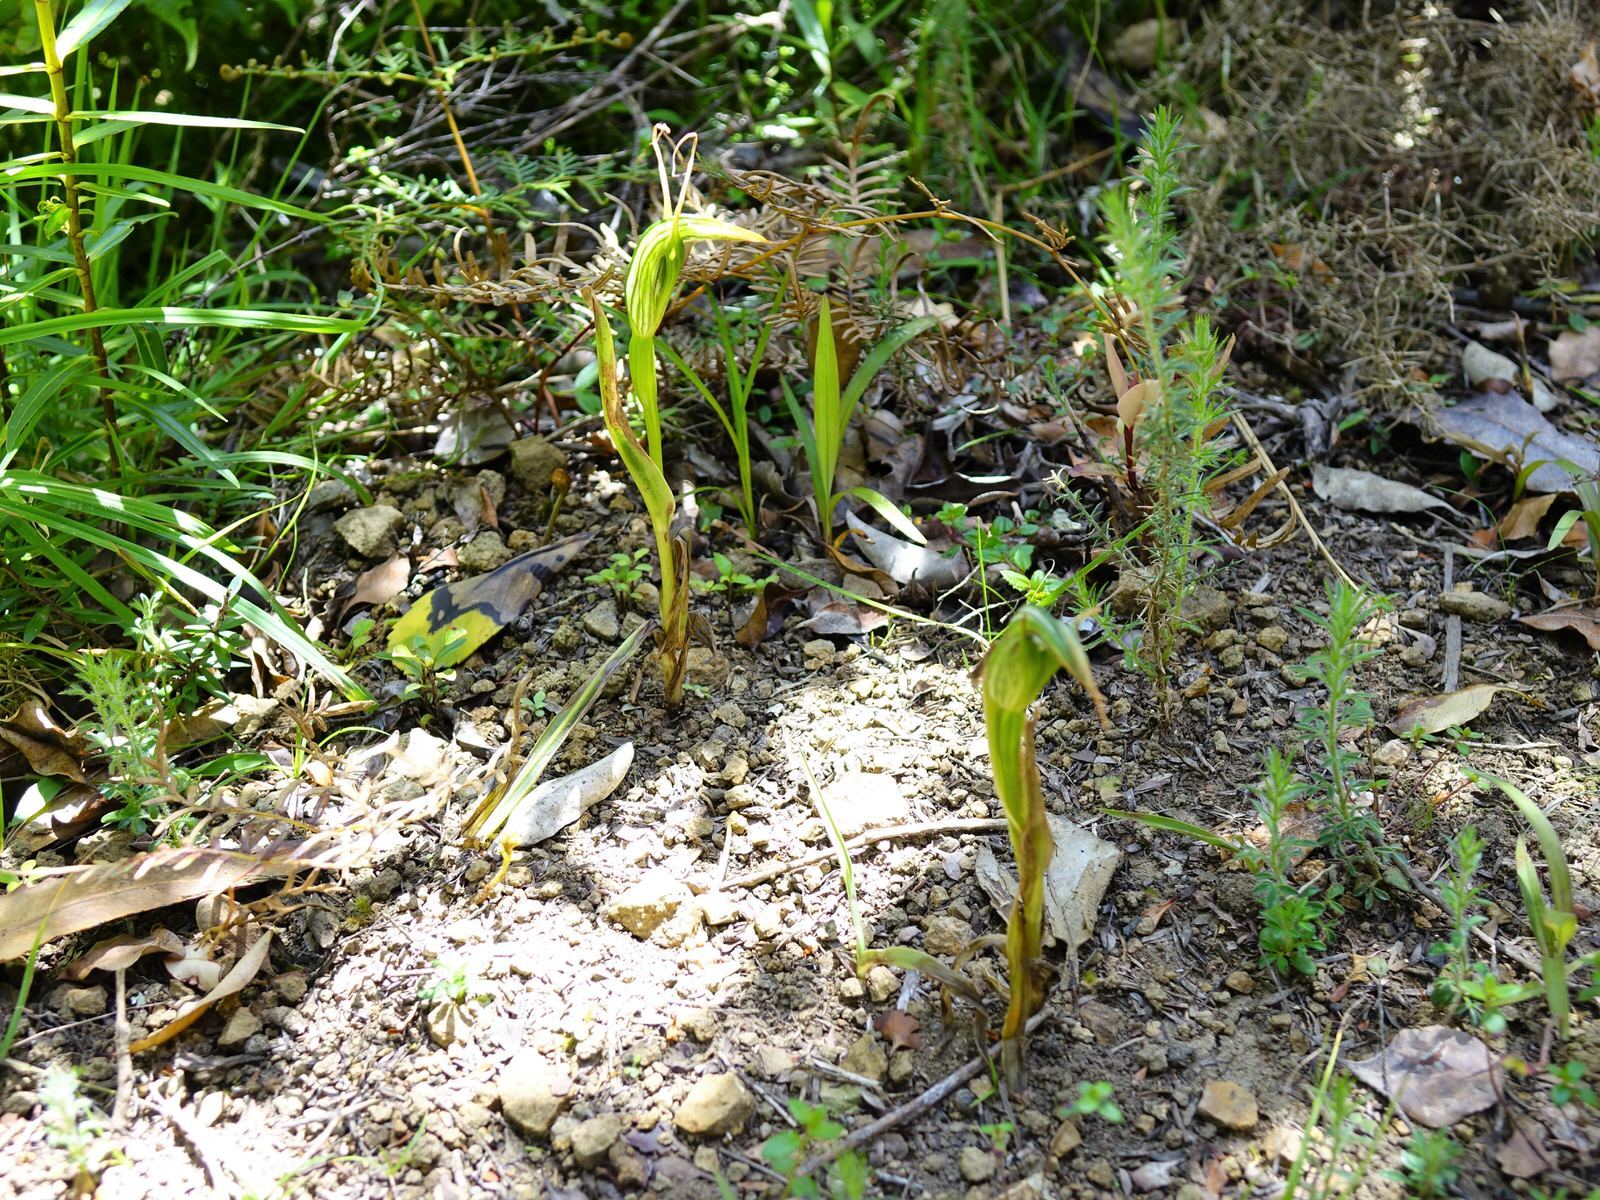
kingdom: Plantae
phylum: Tracheophyta
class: Liliopsida
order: Asparagales
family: Orchidaceae
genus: Pterostylis
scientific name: Pterostylis banksii
